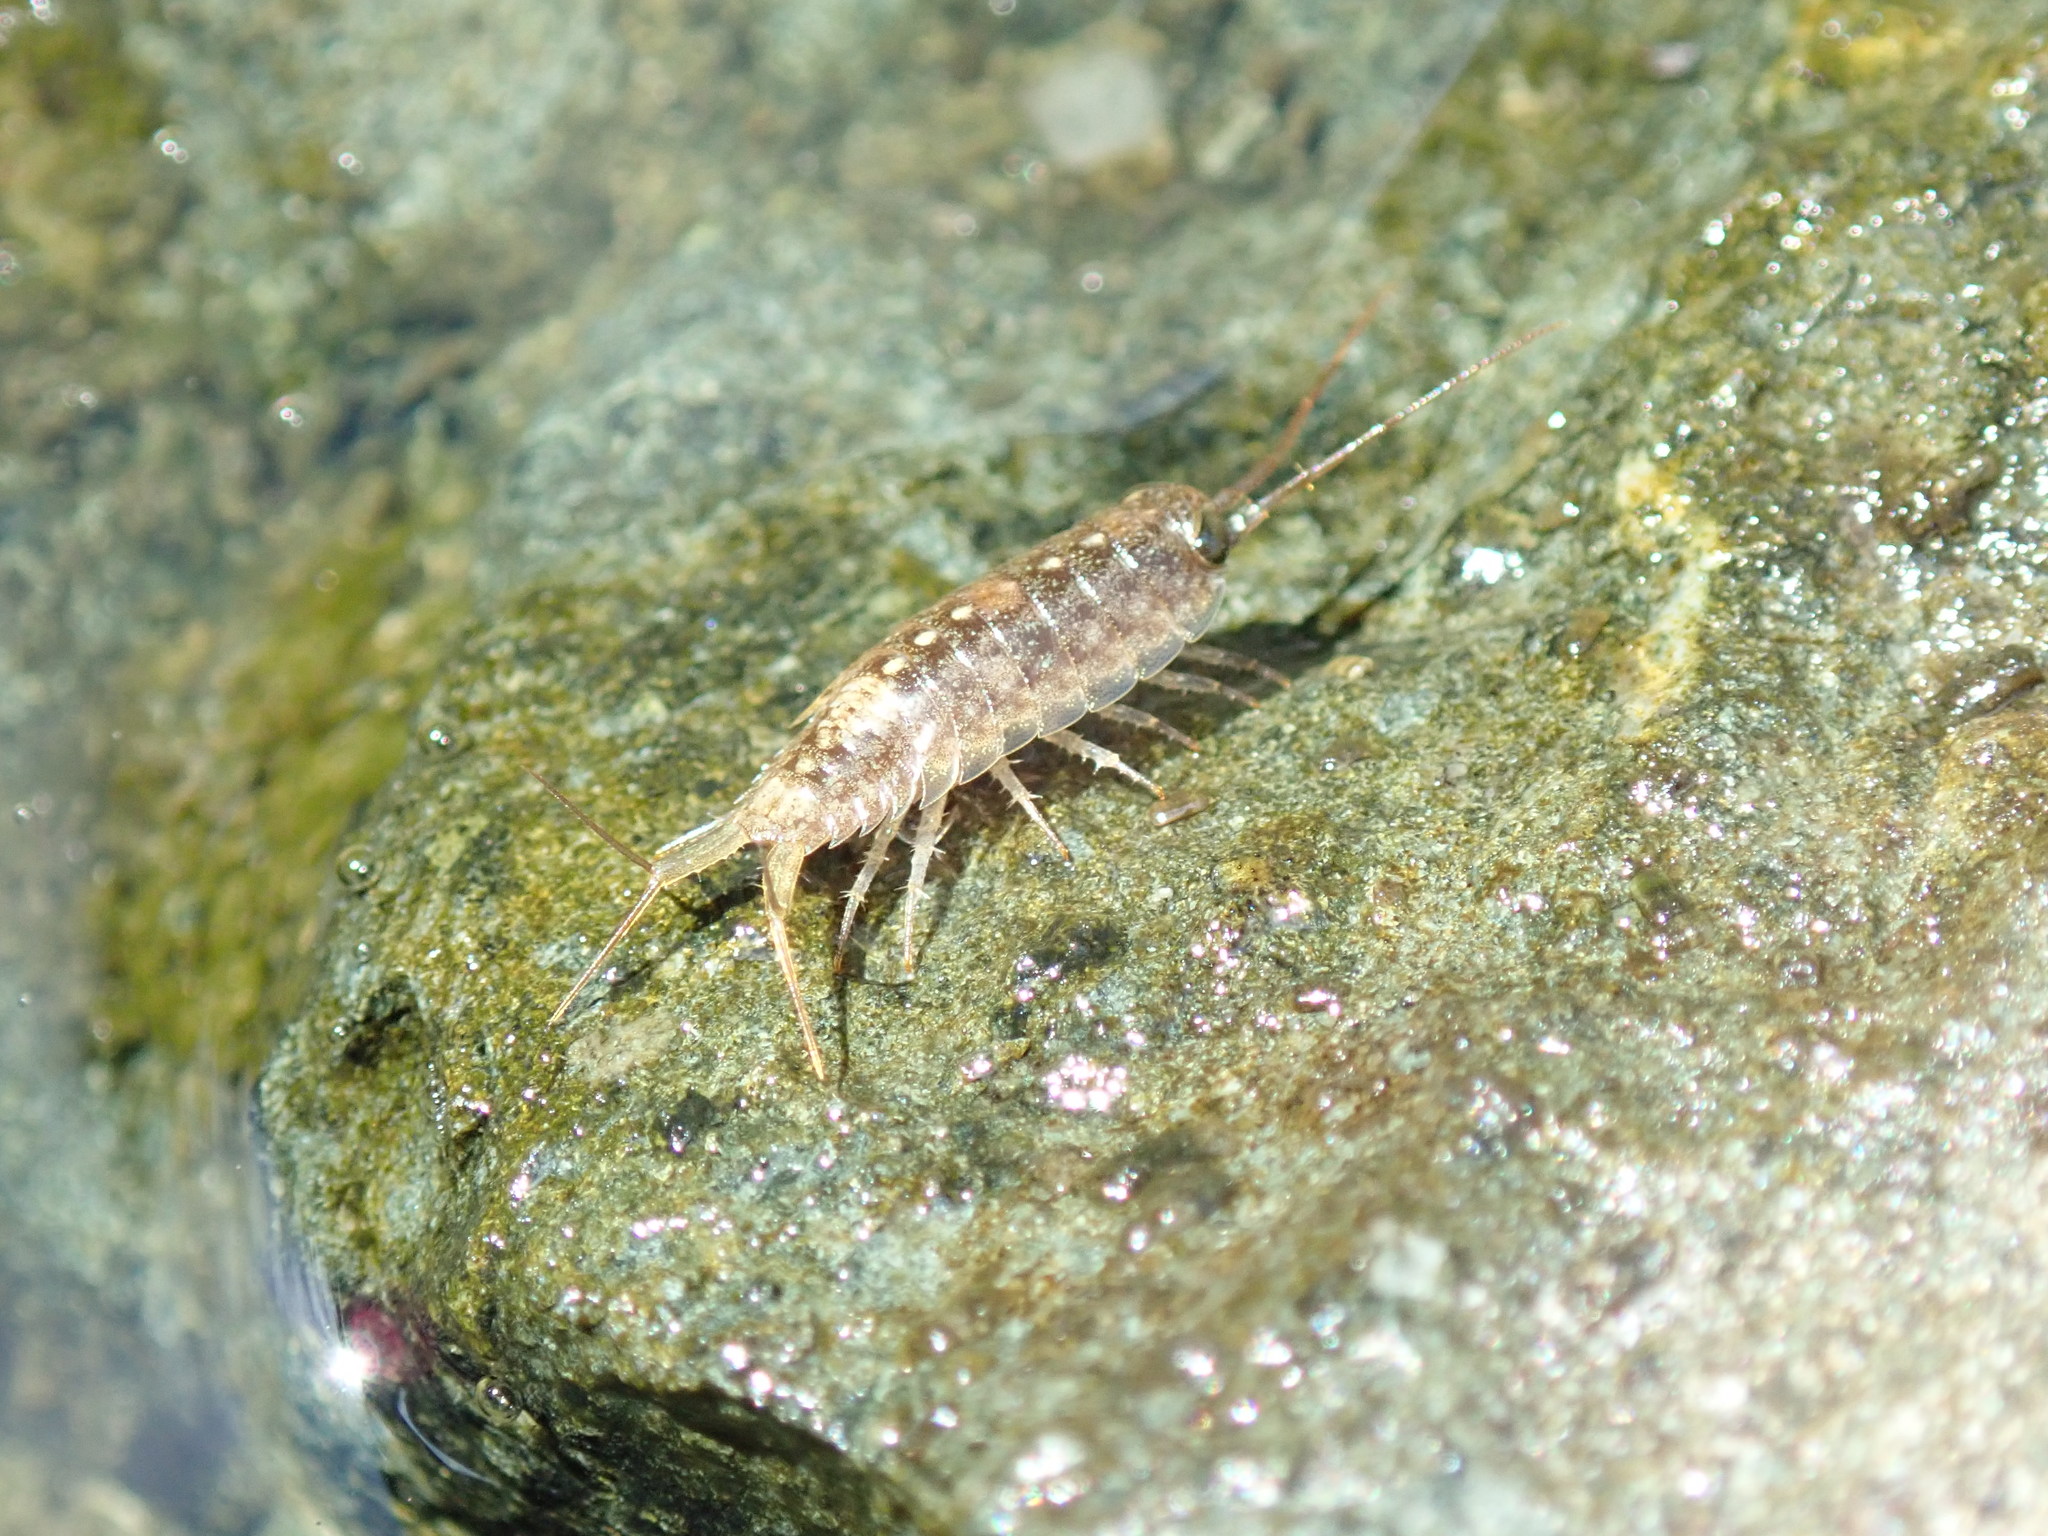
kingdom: Animalia
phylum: Arthropoda
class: Malacostraca
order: Isopoda
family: Ligiidae
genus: Ligia
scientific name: Ligia occidentalis
